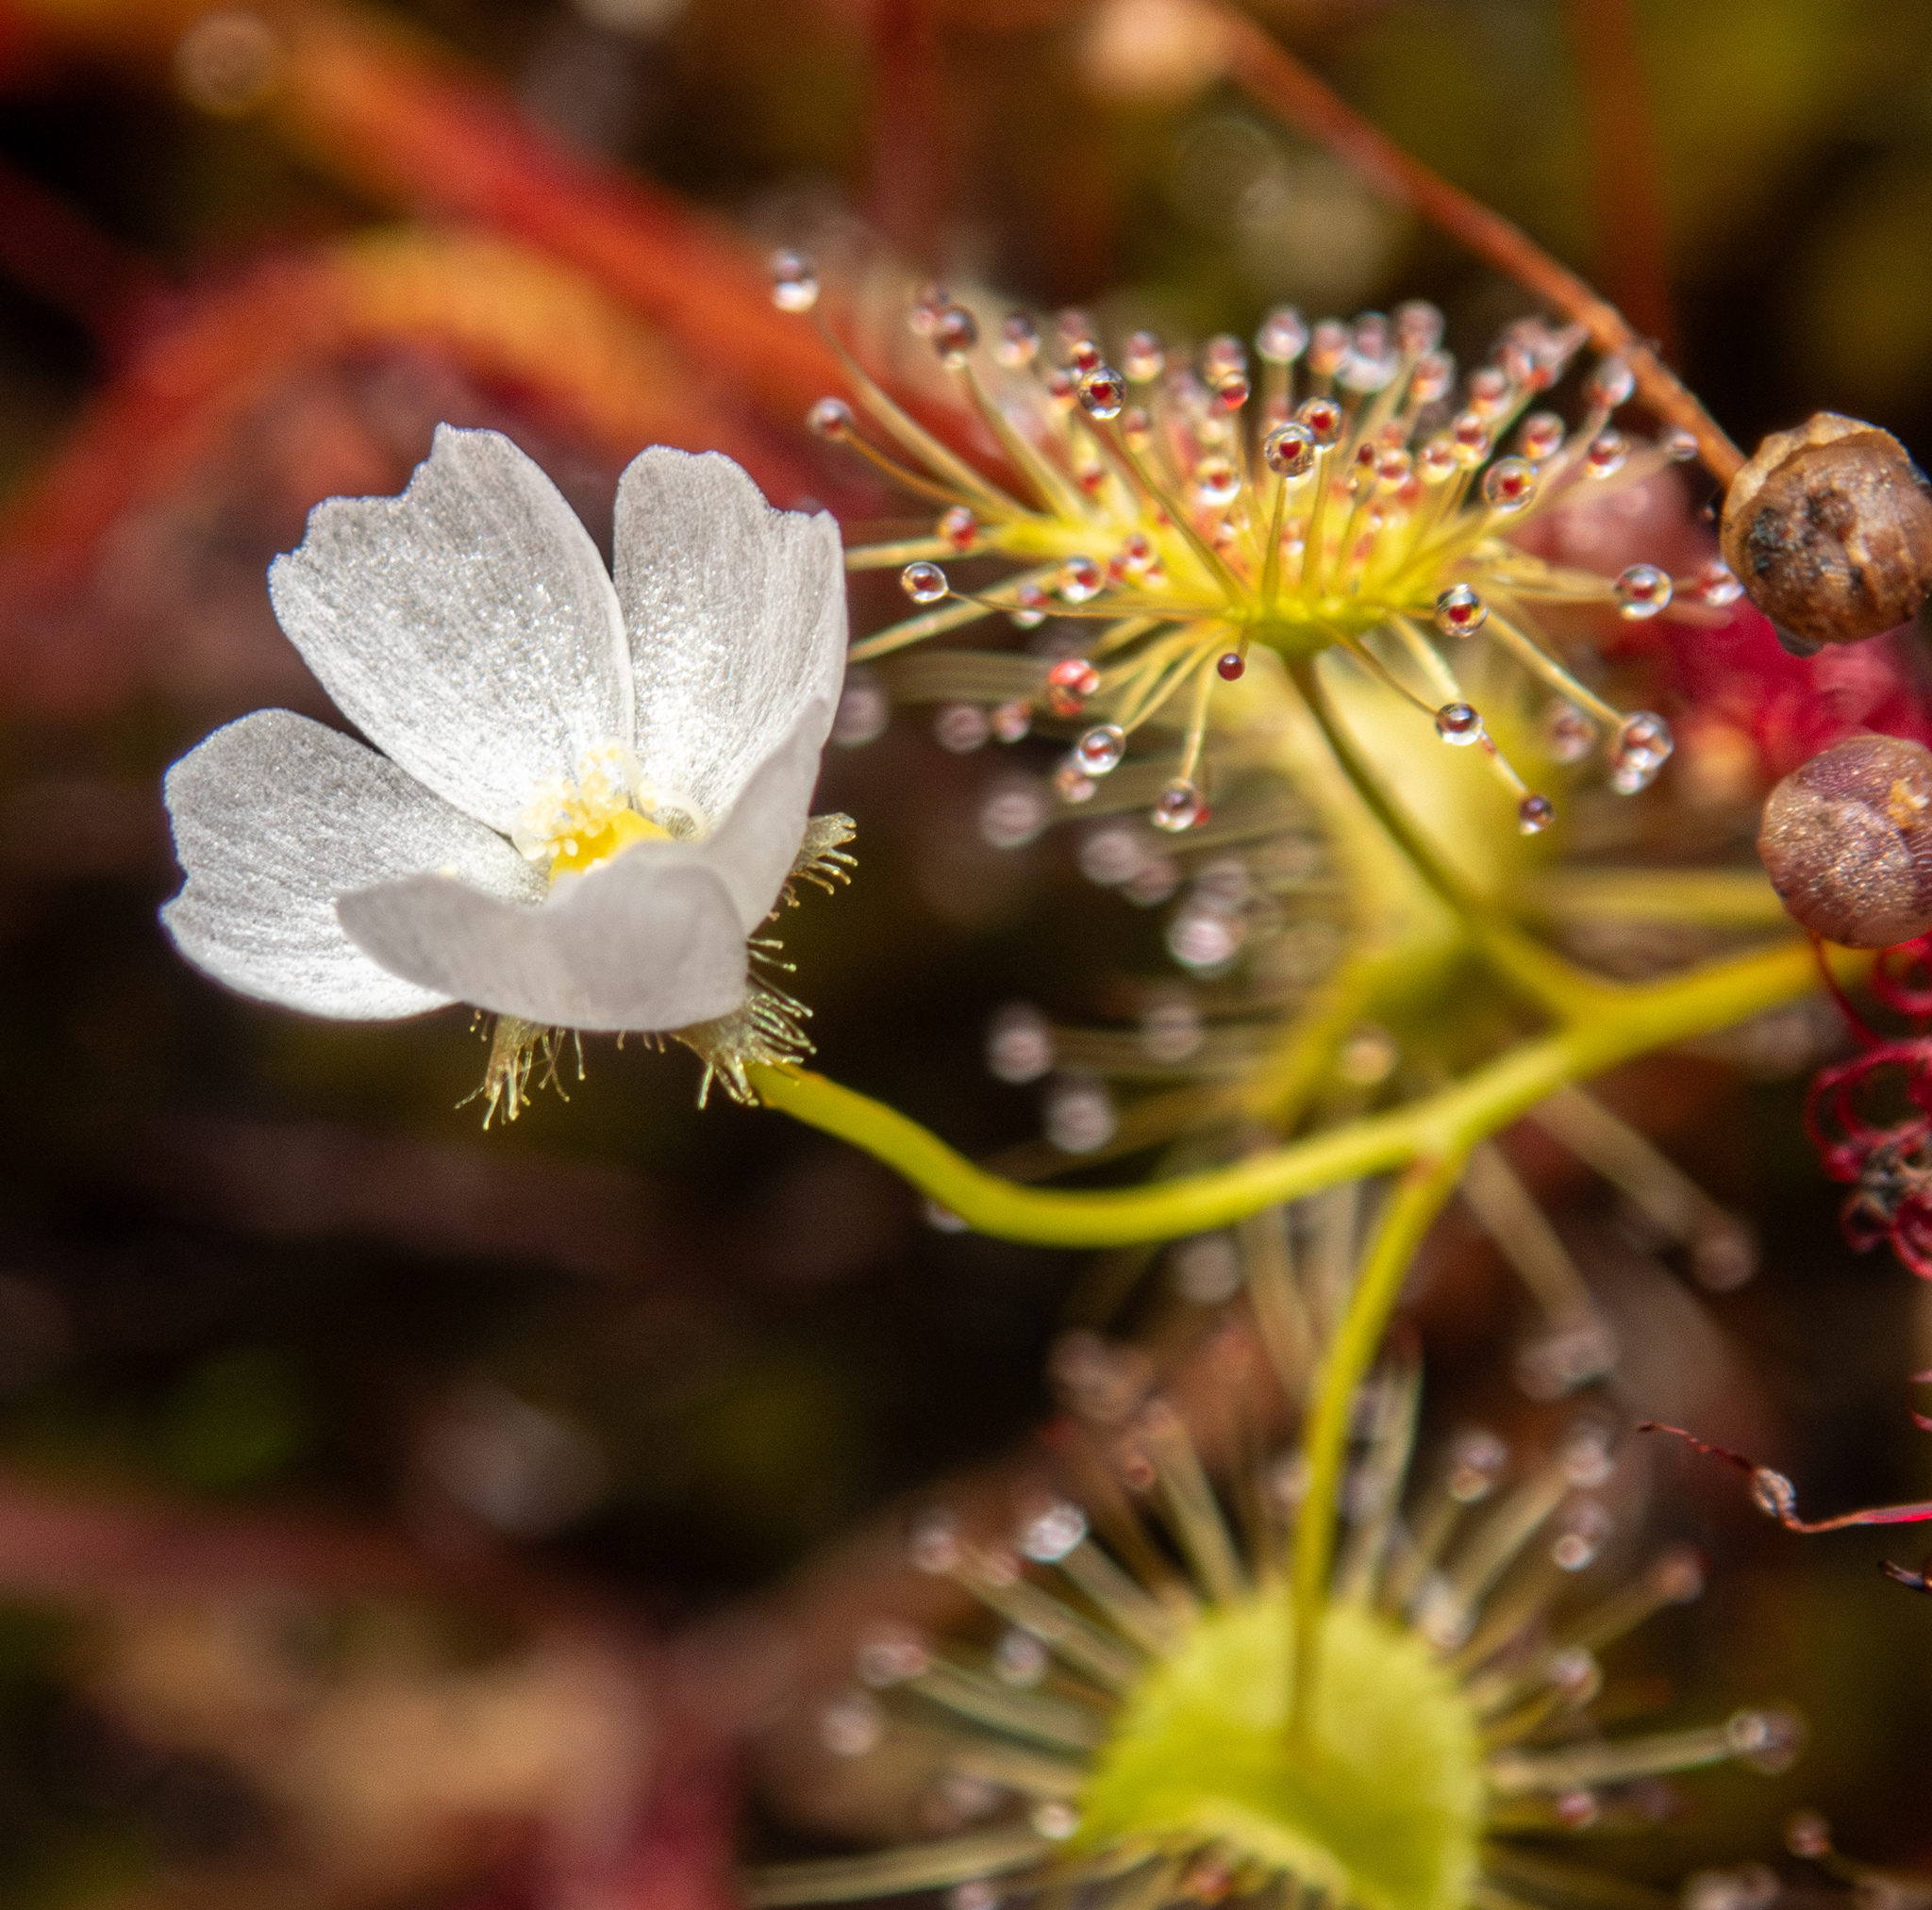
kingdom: Plantae
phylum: Tracheophyta
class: Magnoliopsida
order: Caryophyllales
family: Droseraceae
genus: Drosera
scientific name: Drosera gunniana
